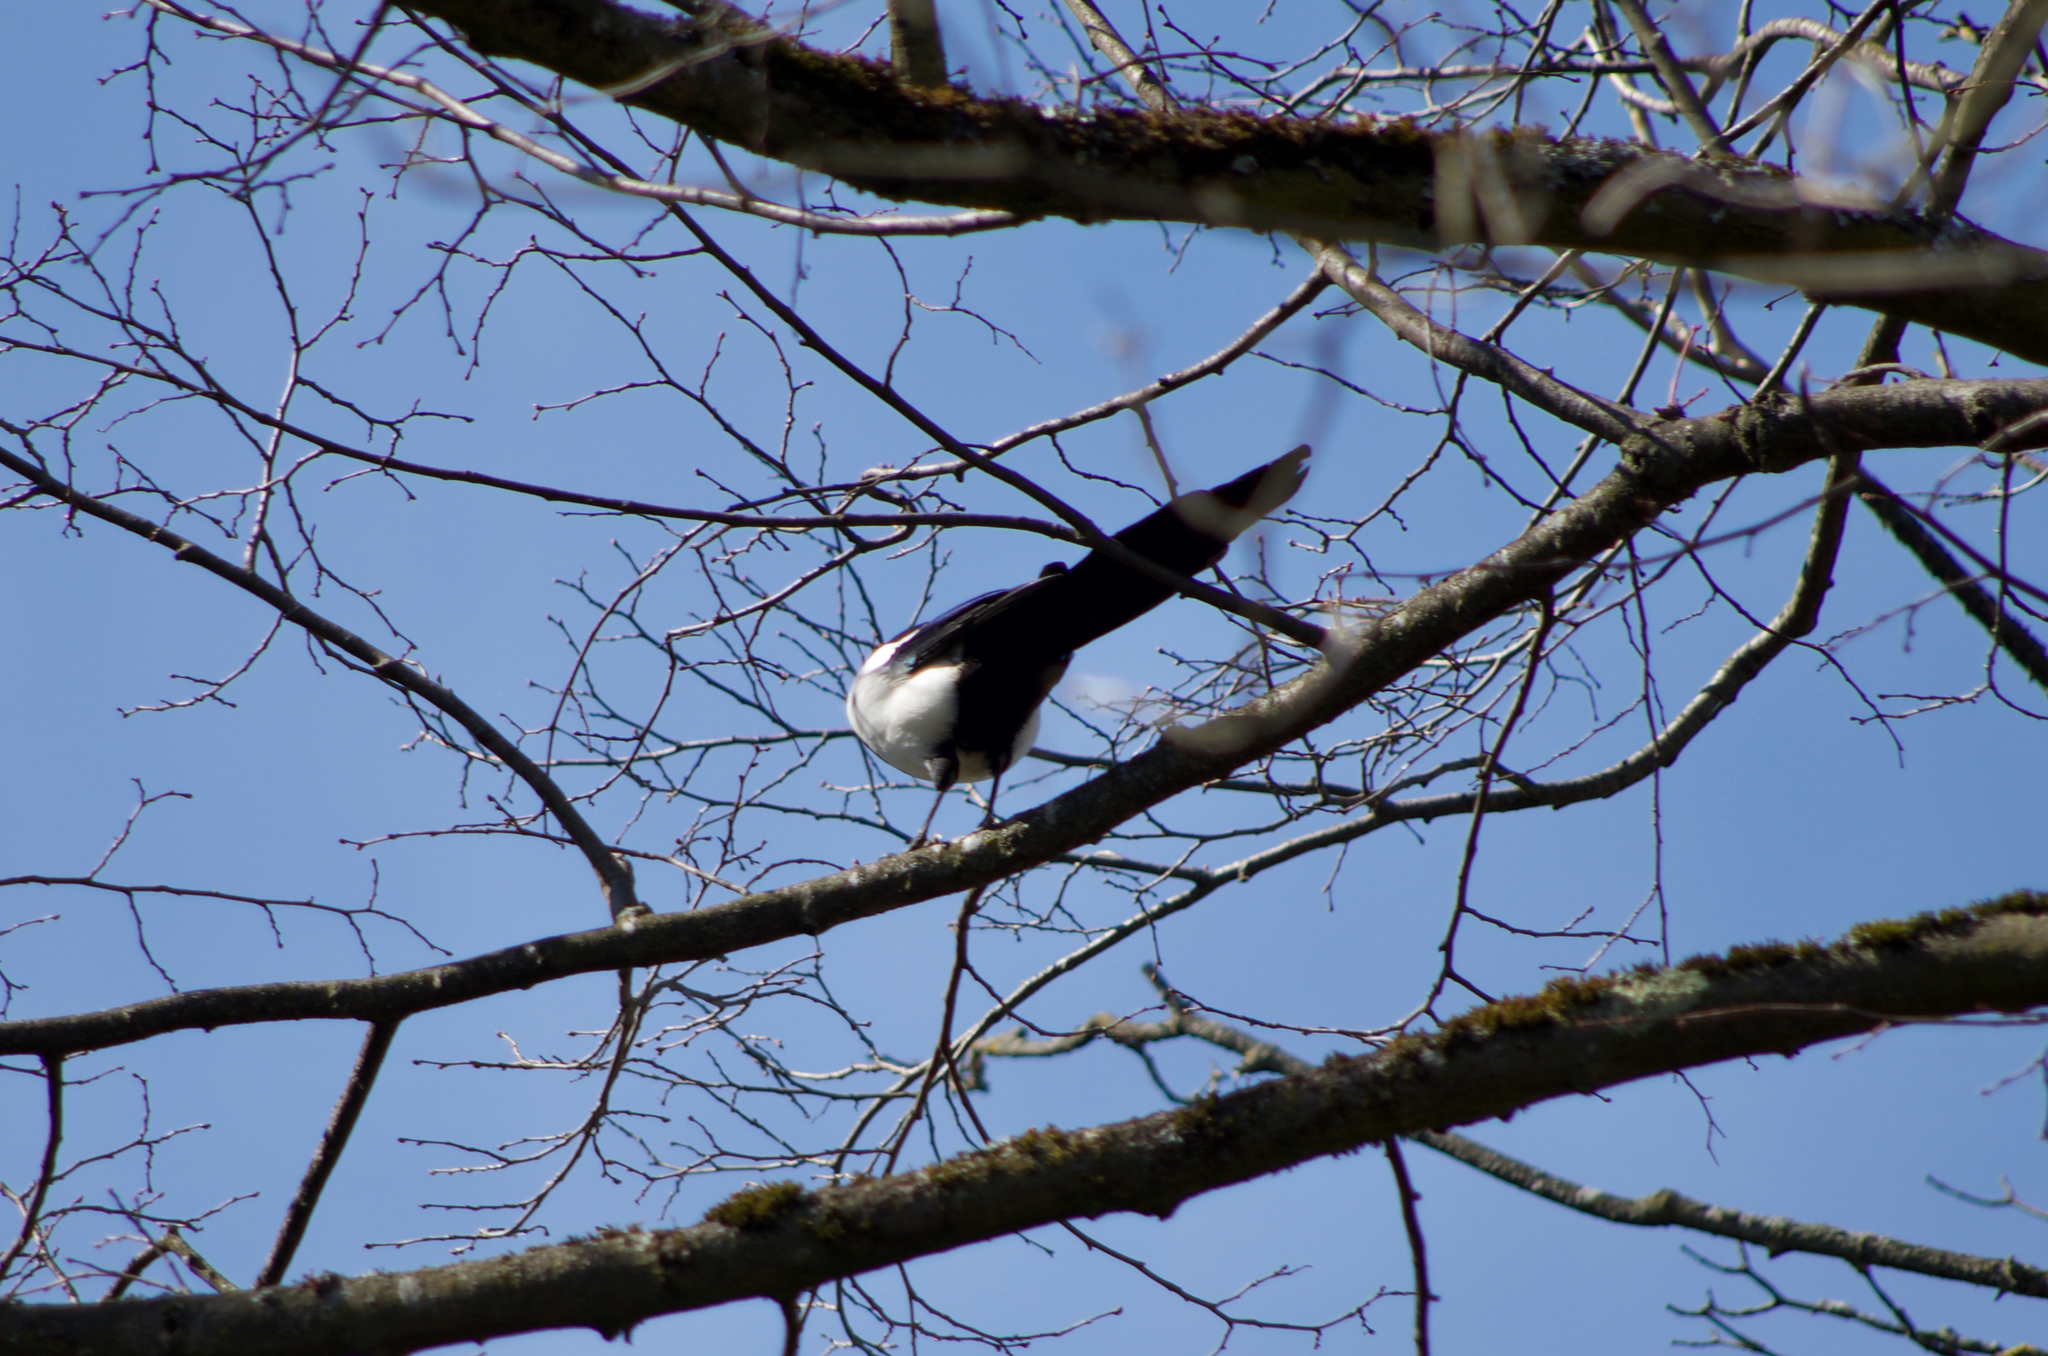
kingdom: Animalia
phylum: Chordata
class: Aves
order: Passeriformes
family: Corvidae
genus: Pica
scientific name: Pica pica
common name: Eurasian magpie
